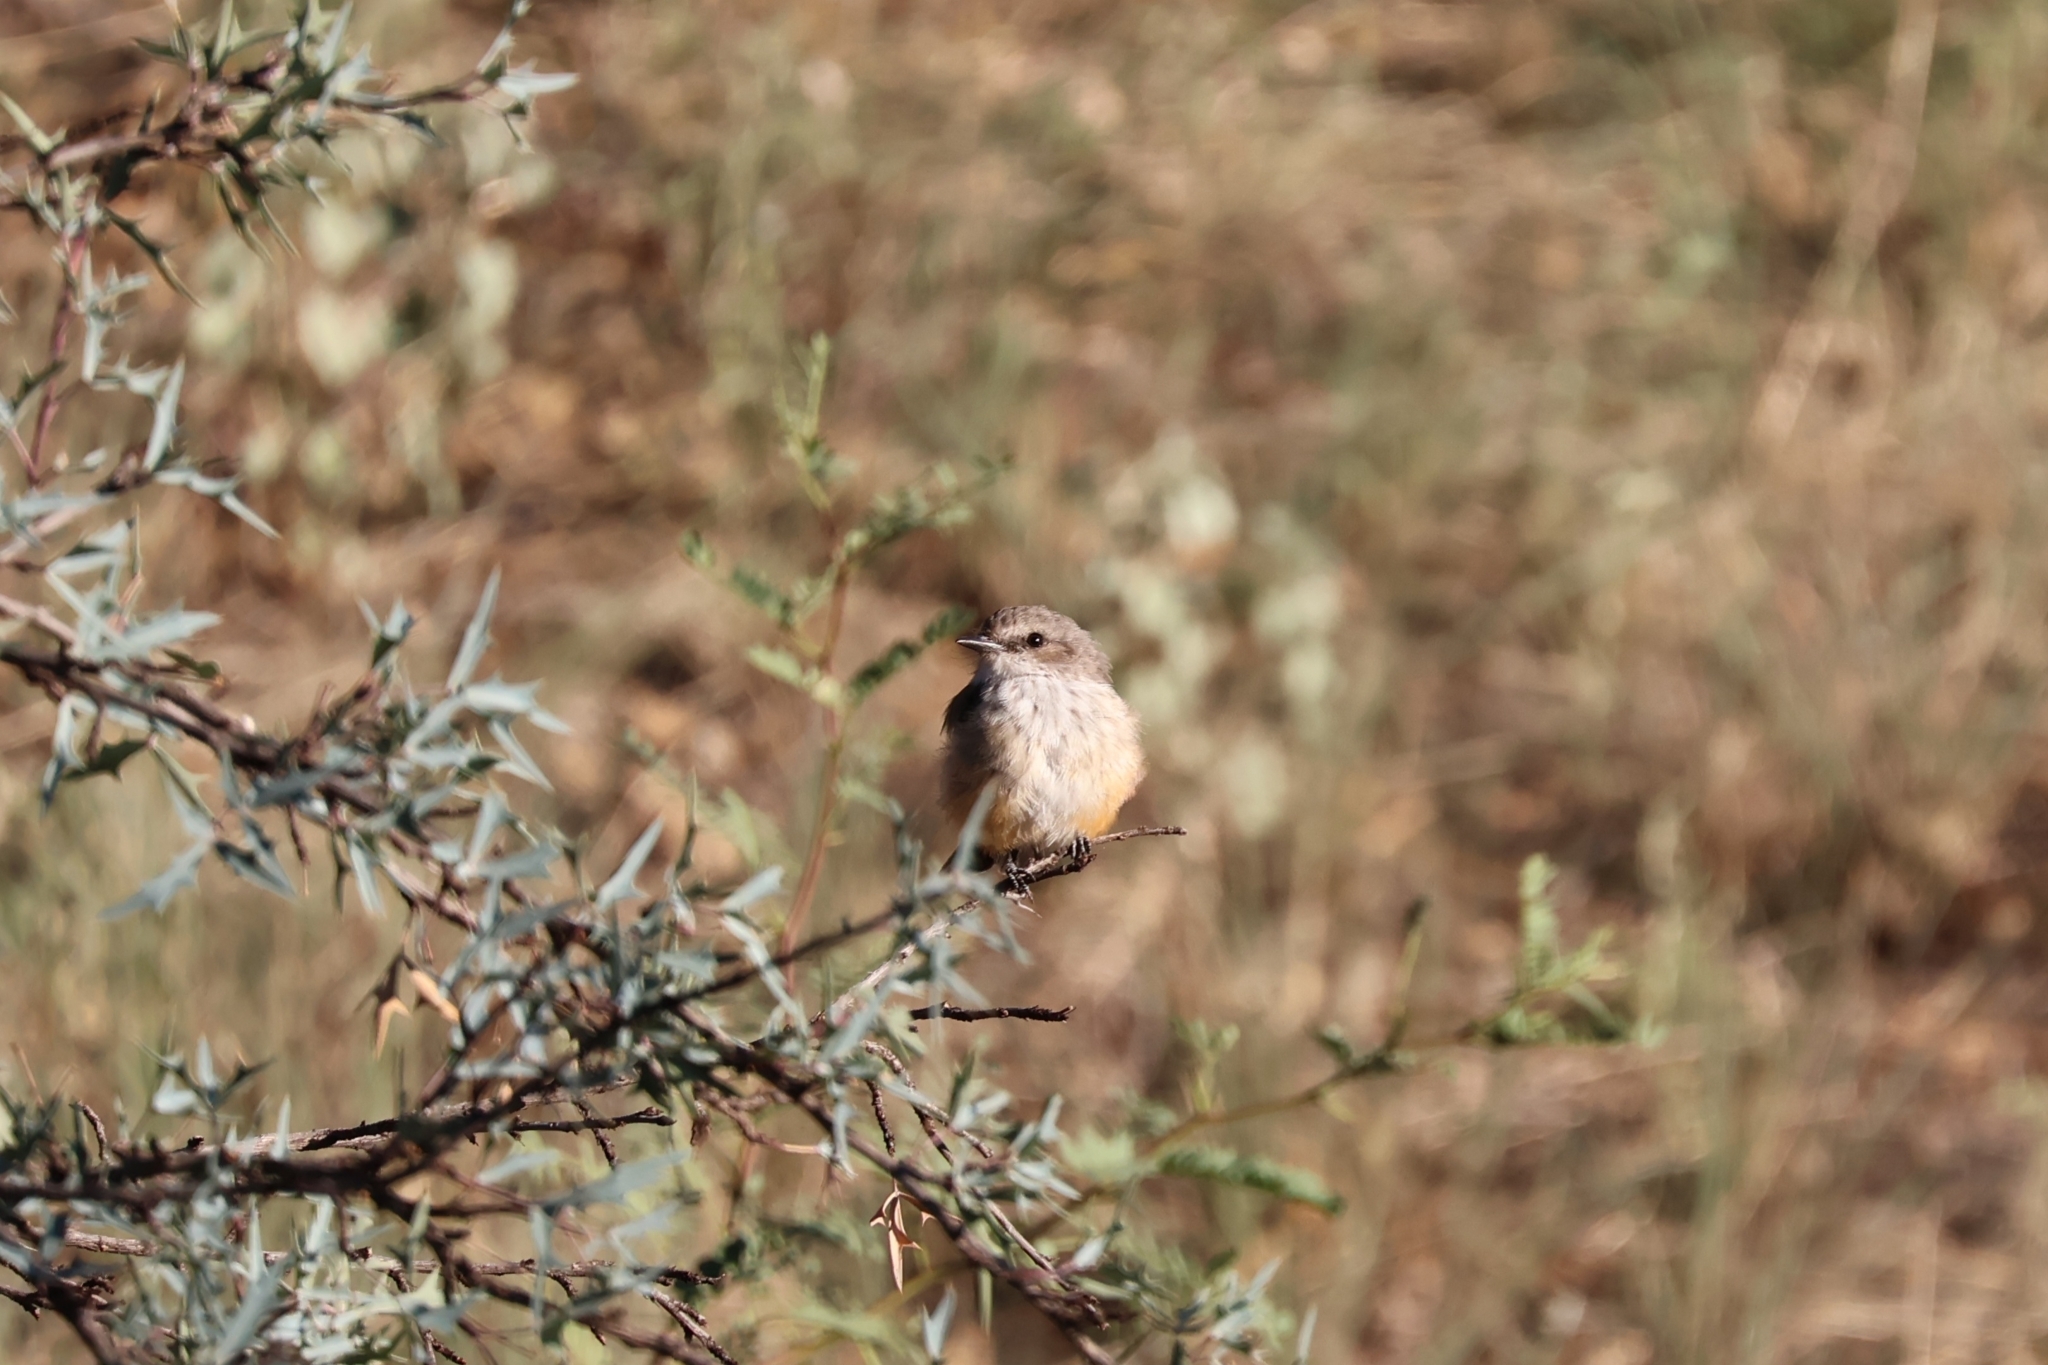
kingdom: Animalia
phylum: Chordata
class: Aves
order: Passeriformes
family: Tyrannidae
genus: Pyrocephalus
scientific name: Pyrocephalus rubinus
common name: Vermilion flycatcher
